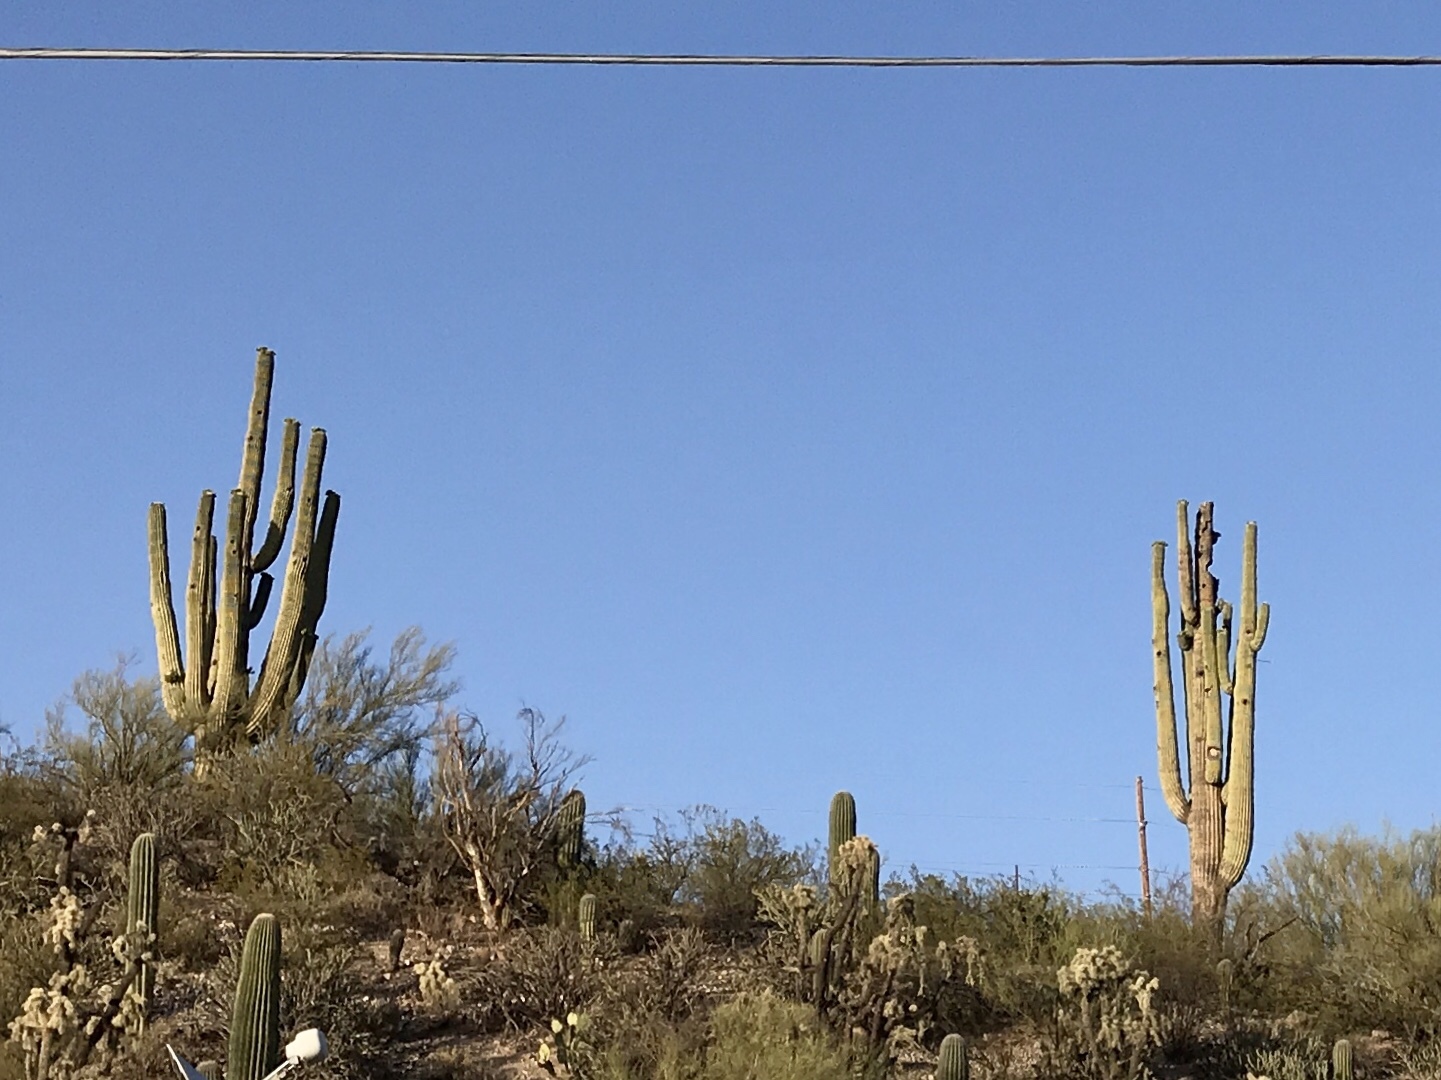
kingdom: Plantae
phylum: Tracheophyta
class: Magnoliopsida
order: Caryophyllales
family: Cactaceae
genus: Carnegiea
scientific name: Carnegiea gigantea
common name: Saguaro
